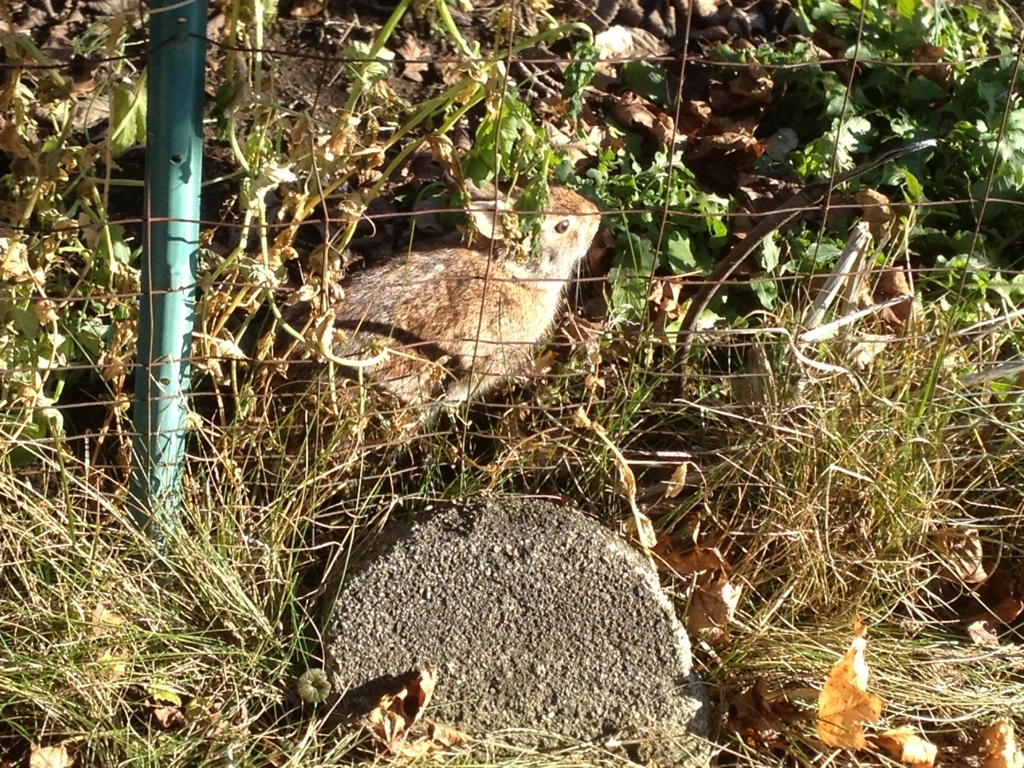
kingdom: Animalia
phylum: Chordata
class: Mammalia
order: Lagomorpha
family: Leporidae
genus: Sylvilagus
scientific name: Sylvilagus floridanus
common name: Eastern cottontail
